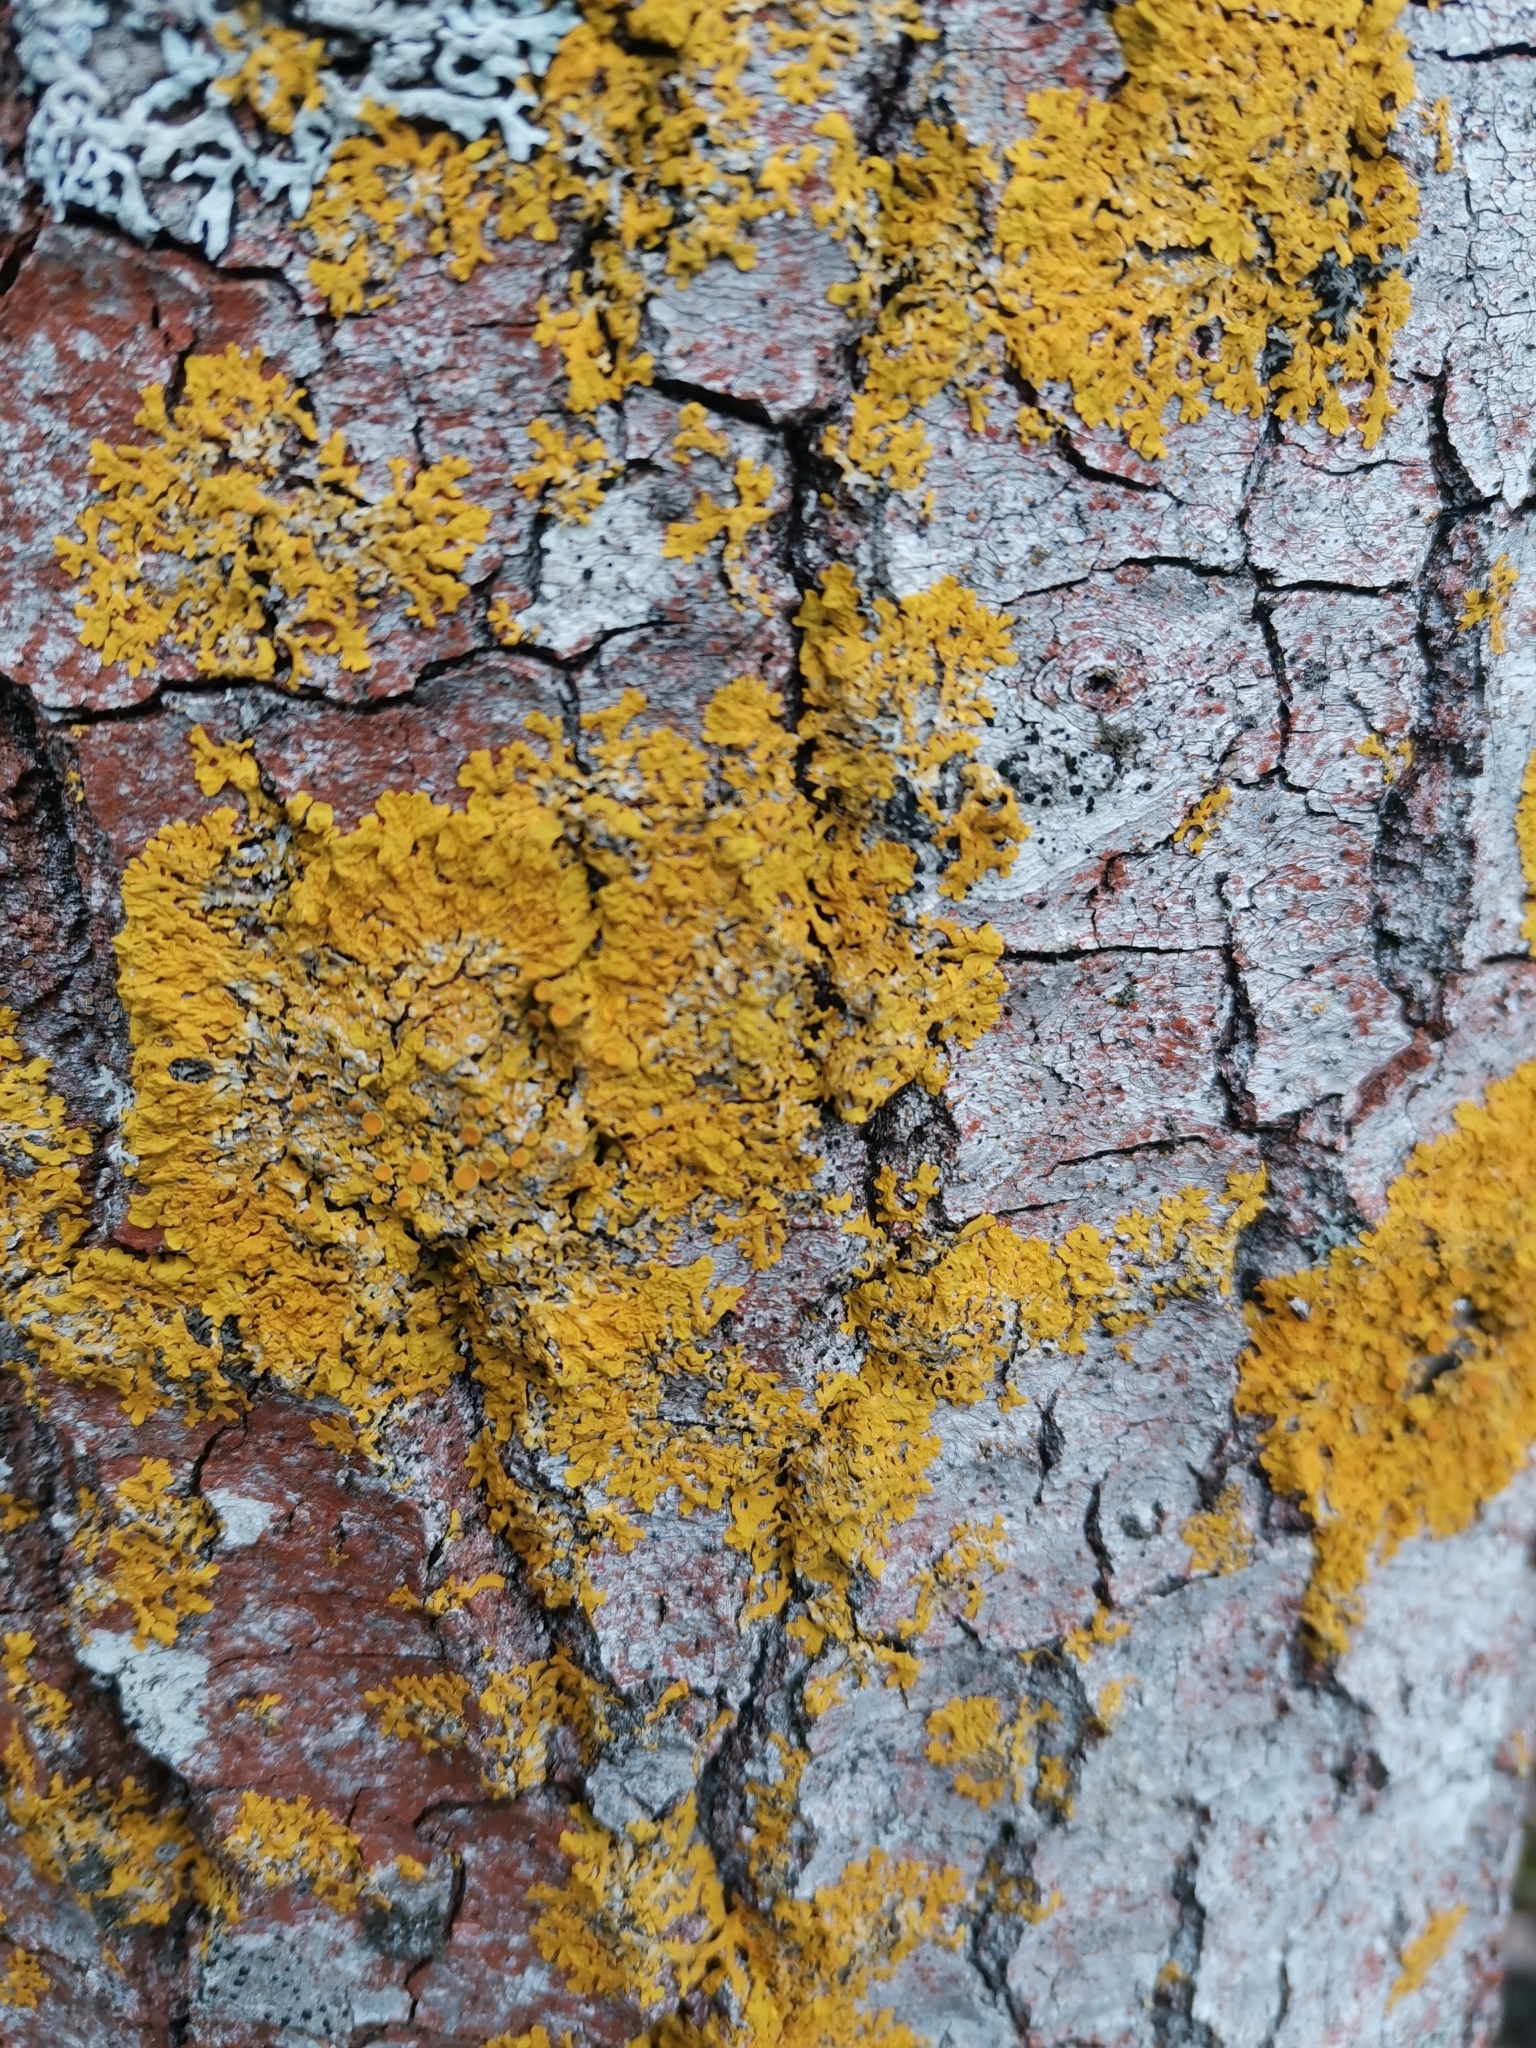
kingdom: Fungi
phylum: Ascomycota
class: Lecanoromycetes
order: Teloschistales
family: Teloschistaceae
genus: Xanthoria
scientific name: Xanthoria parietina
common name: Common orange lichen
